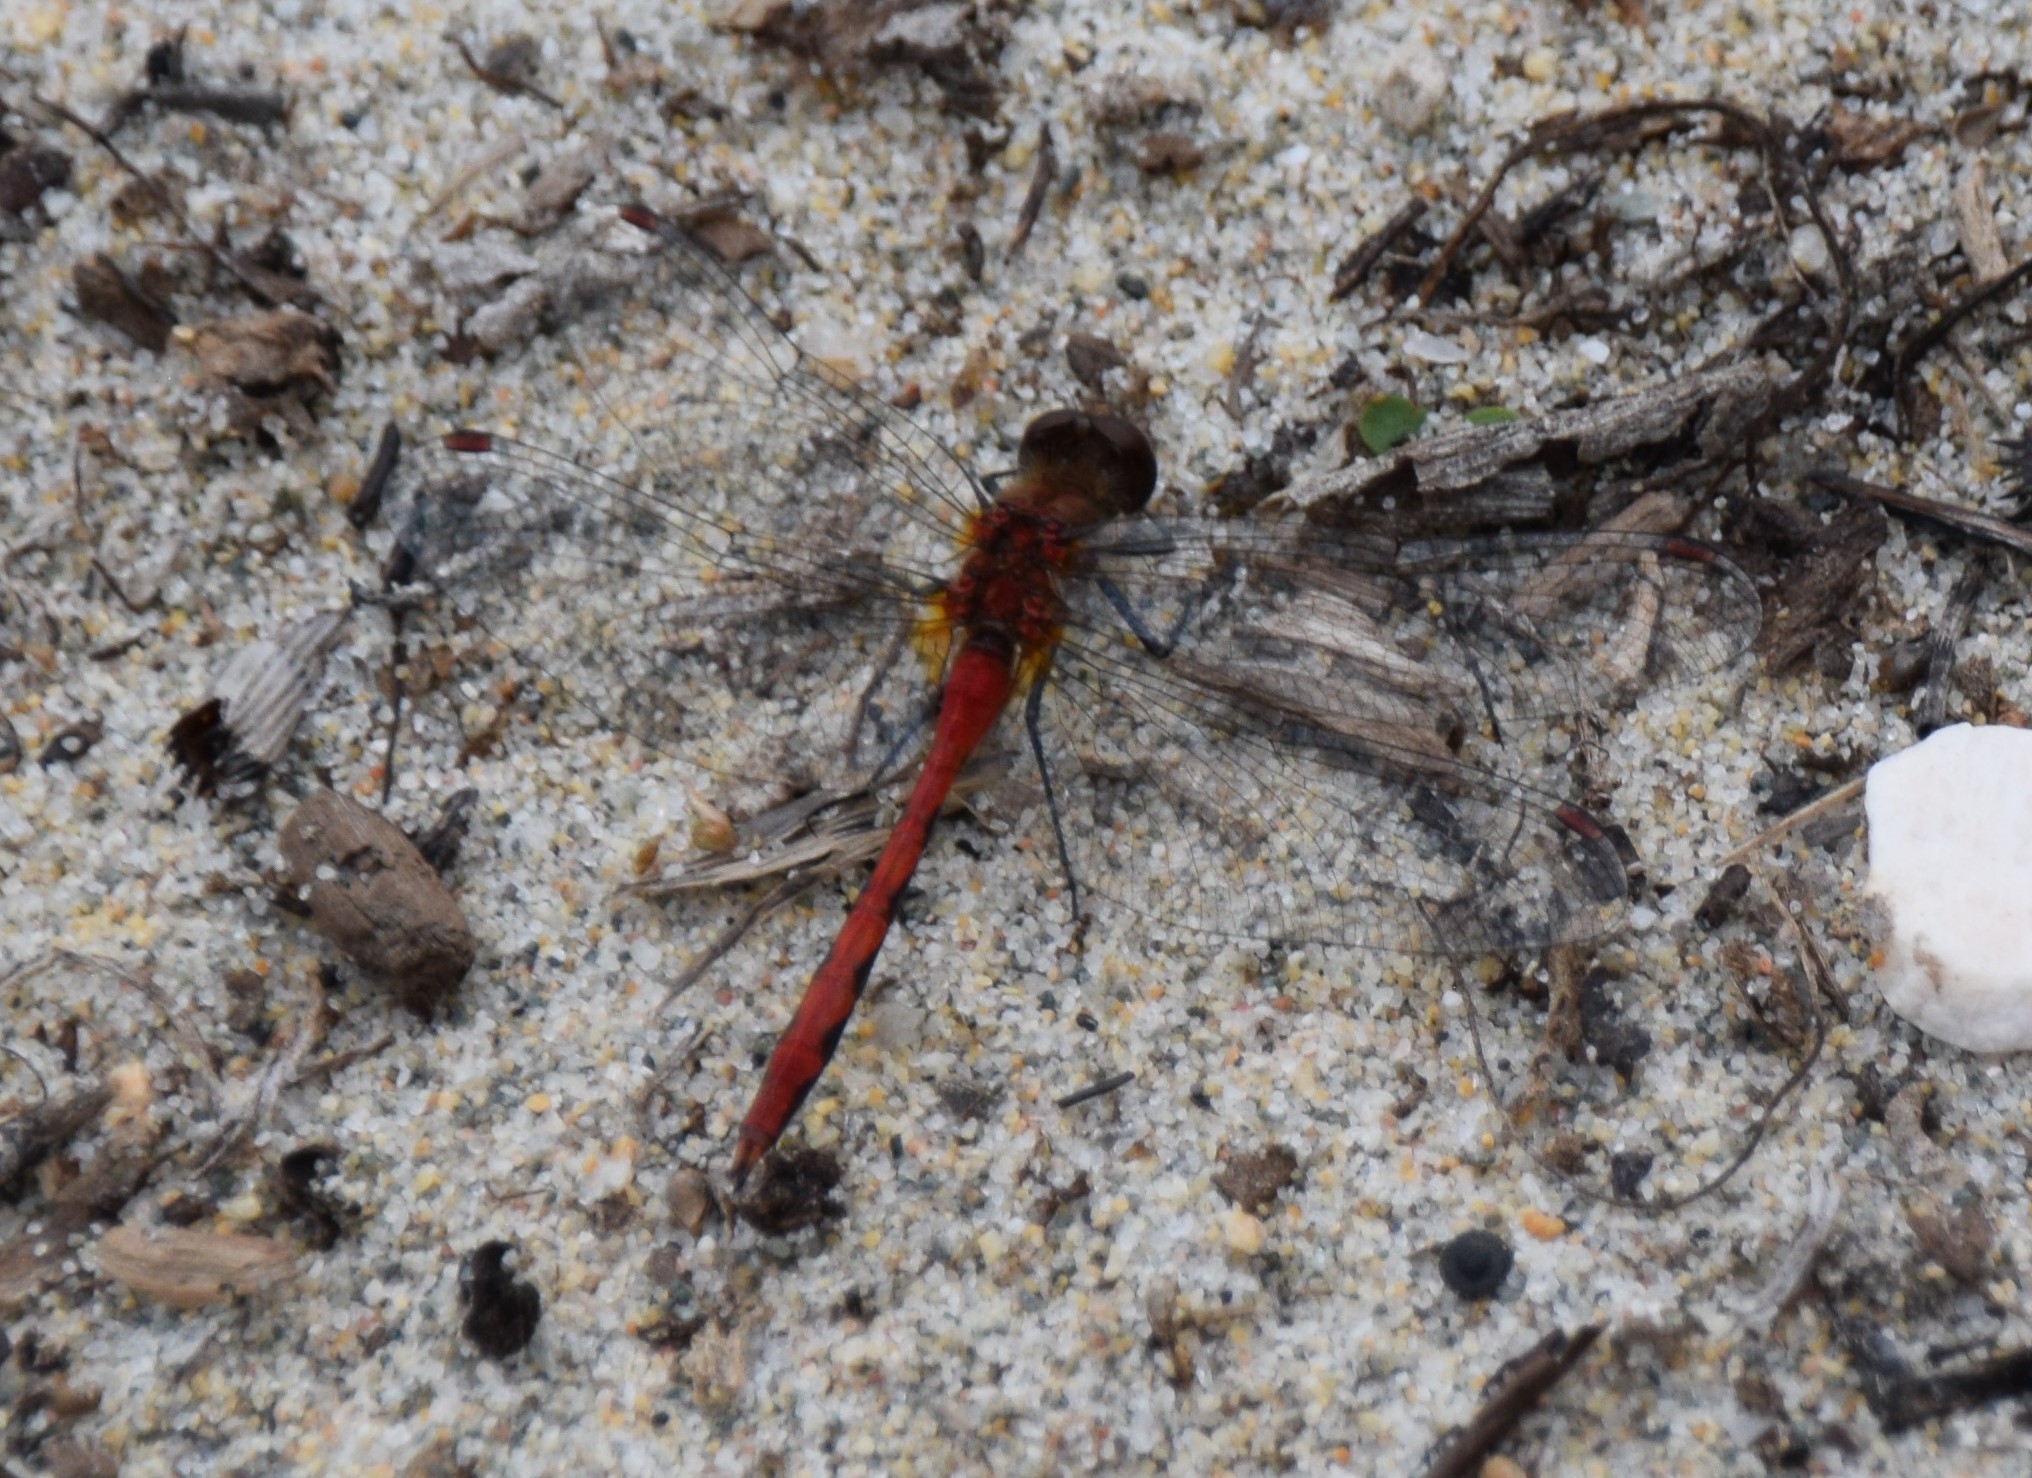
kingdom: Animalia
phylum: Arthropoda
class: Insecta
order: Odonata
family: Libellulidae
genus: Sympetrum
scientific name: Sympetrum obtrusum
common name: White-faced meadowhawk
